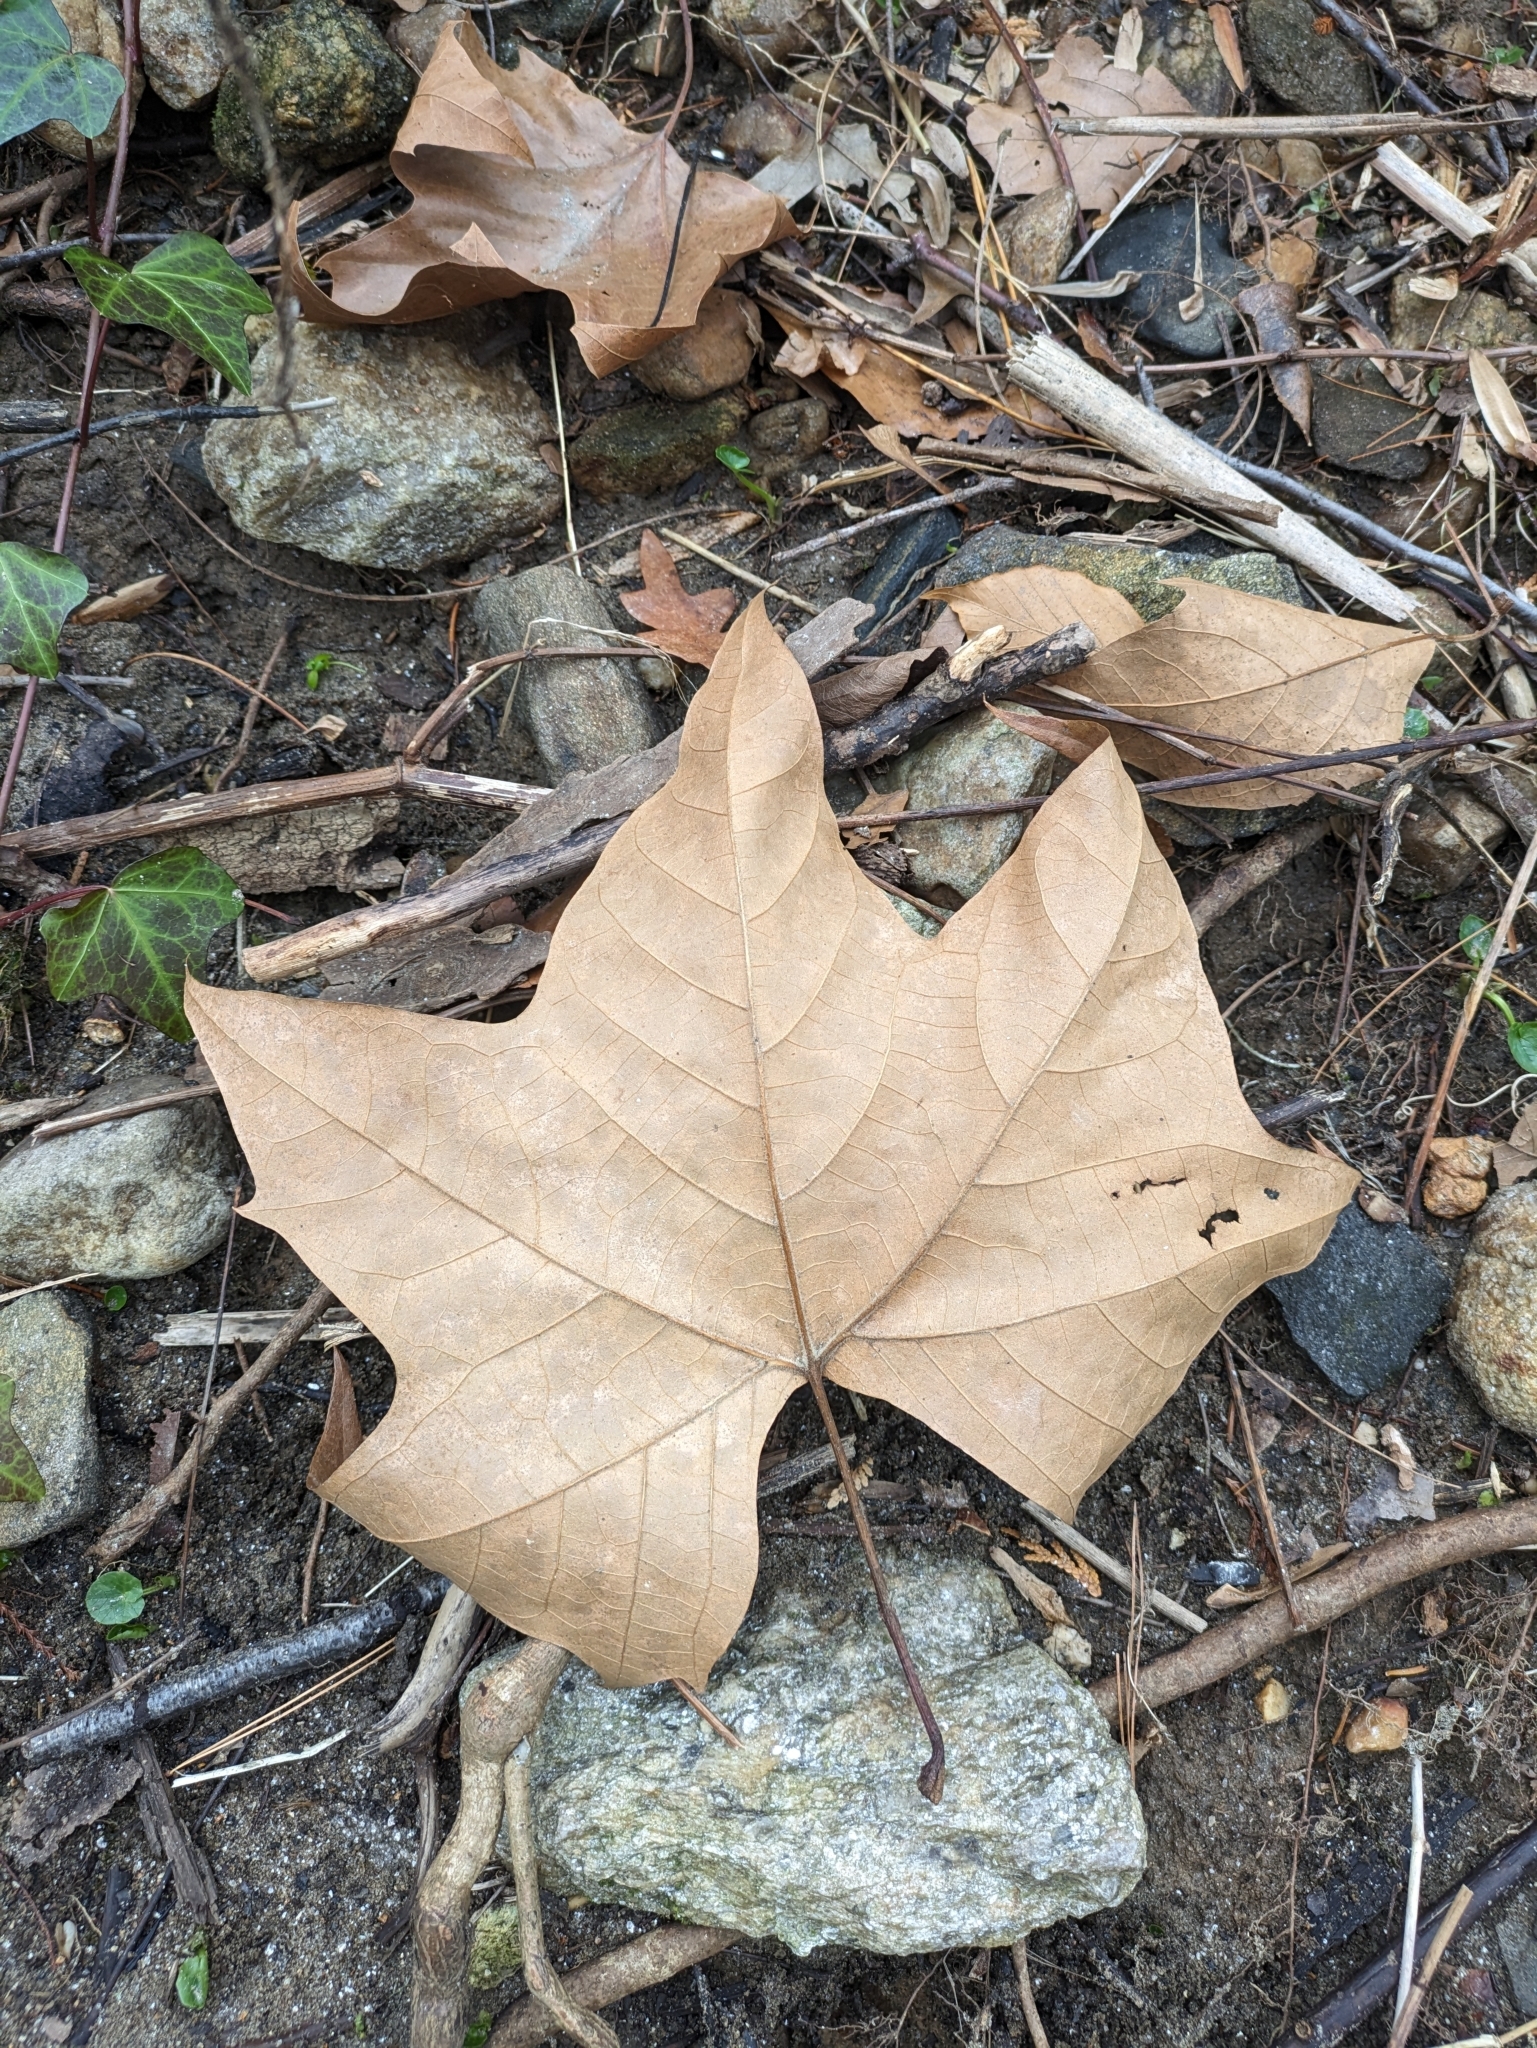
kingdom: Plantae
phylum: Tracheophyta
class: Magnoliopsida
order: Proteales
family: Platanaceae
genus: Platanus
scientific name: Platanus occidentalis
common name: American sycamore
